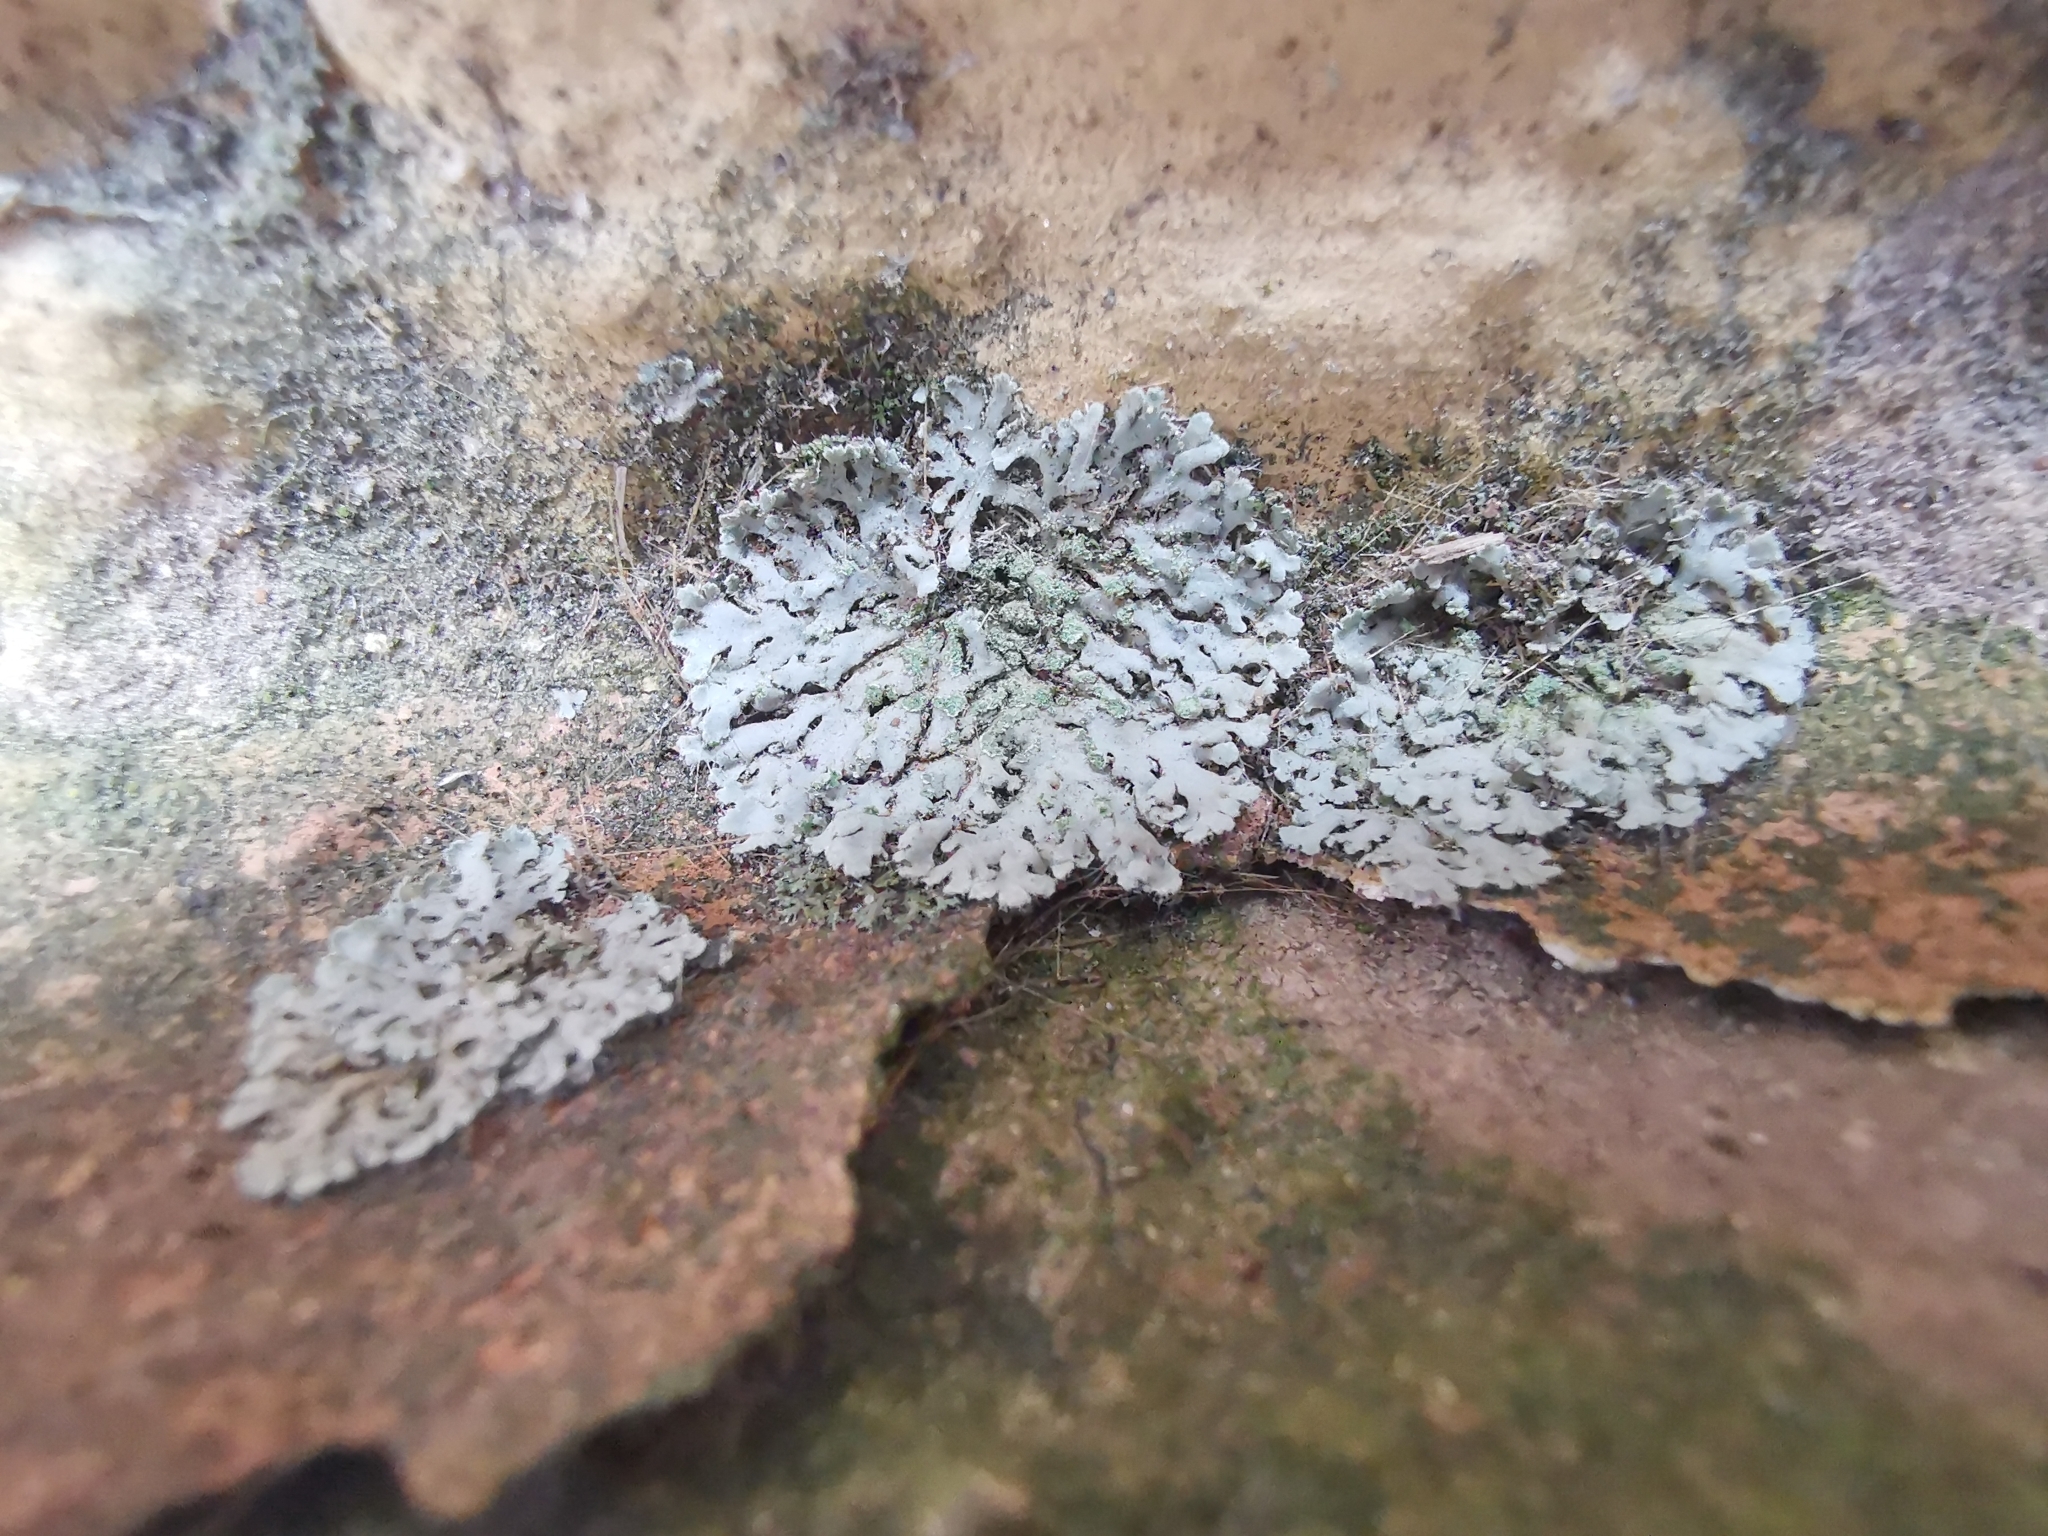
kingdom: Fungi
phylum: Ascomycota
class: Lecanoromycetes
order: Caliciales
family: Physciaceae
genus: Phaeophyscia
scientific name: Phaeophyscia orbicularis
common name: Mealy shadow lichen
